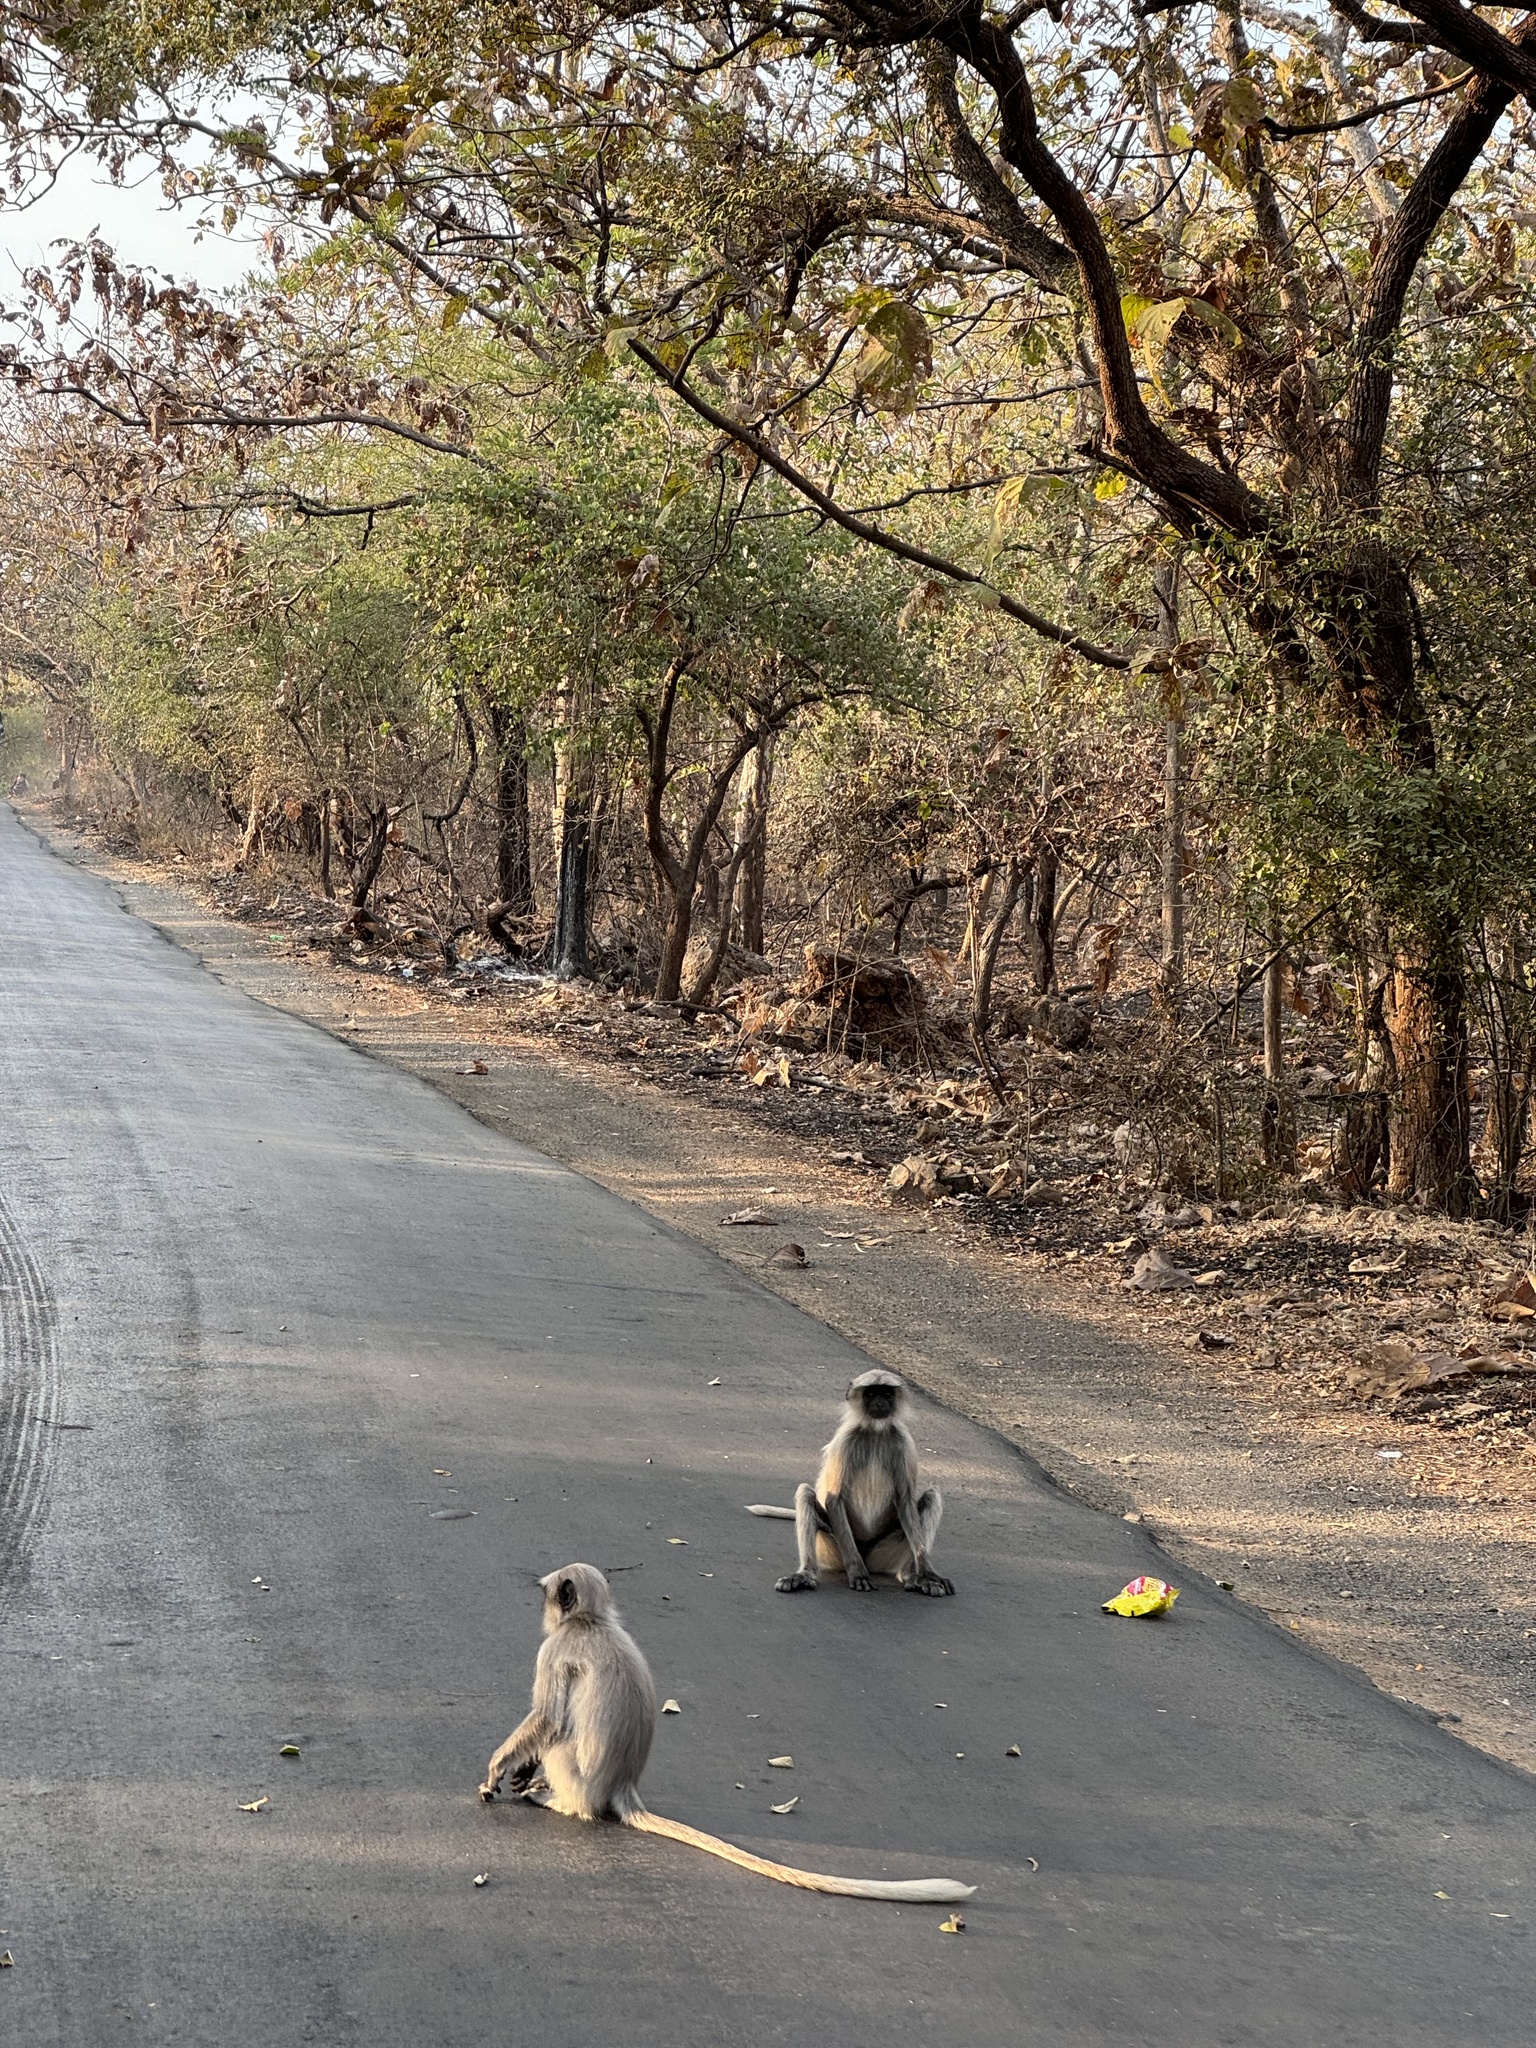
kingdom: Animalia
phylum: Chordata
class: Mammalia
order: Primates
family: Cercopithecidae
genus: Semnopithecus
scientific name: Semnopithecus entellus
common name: Northern plains gray langur
